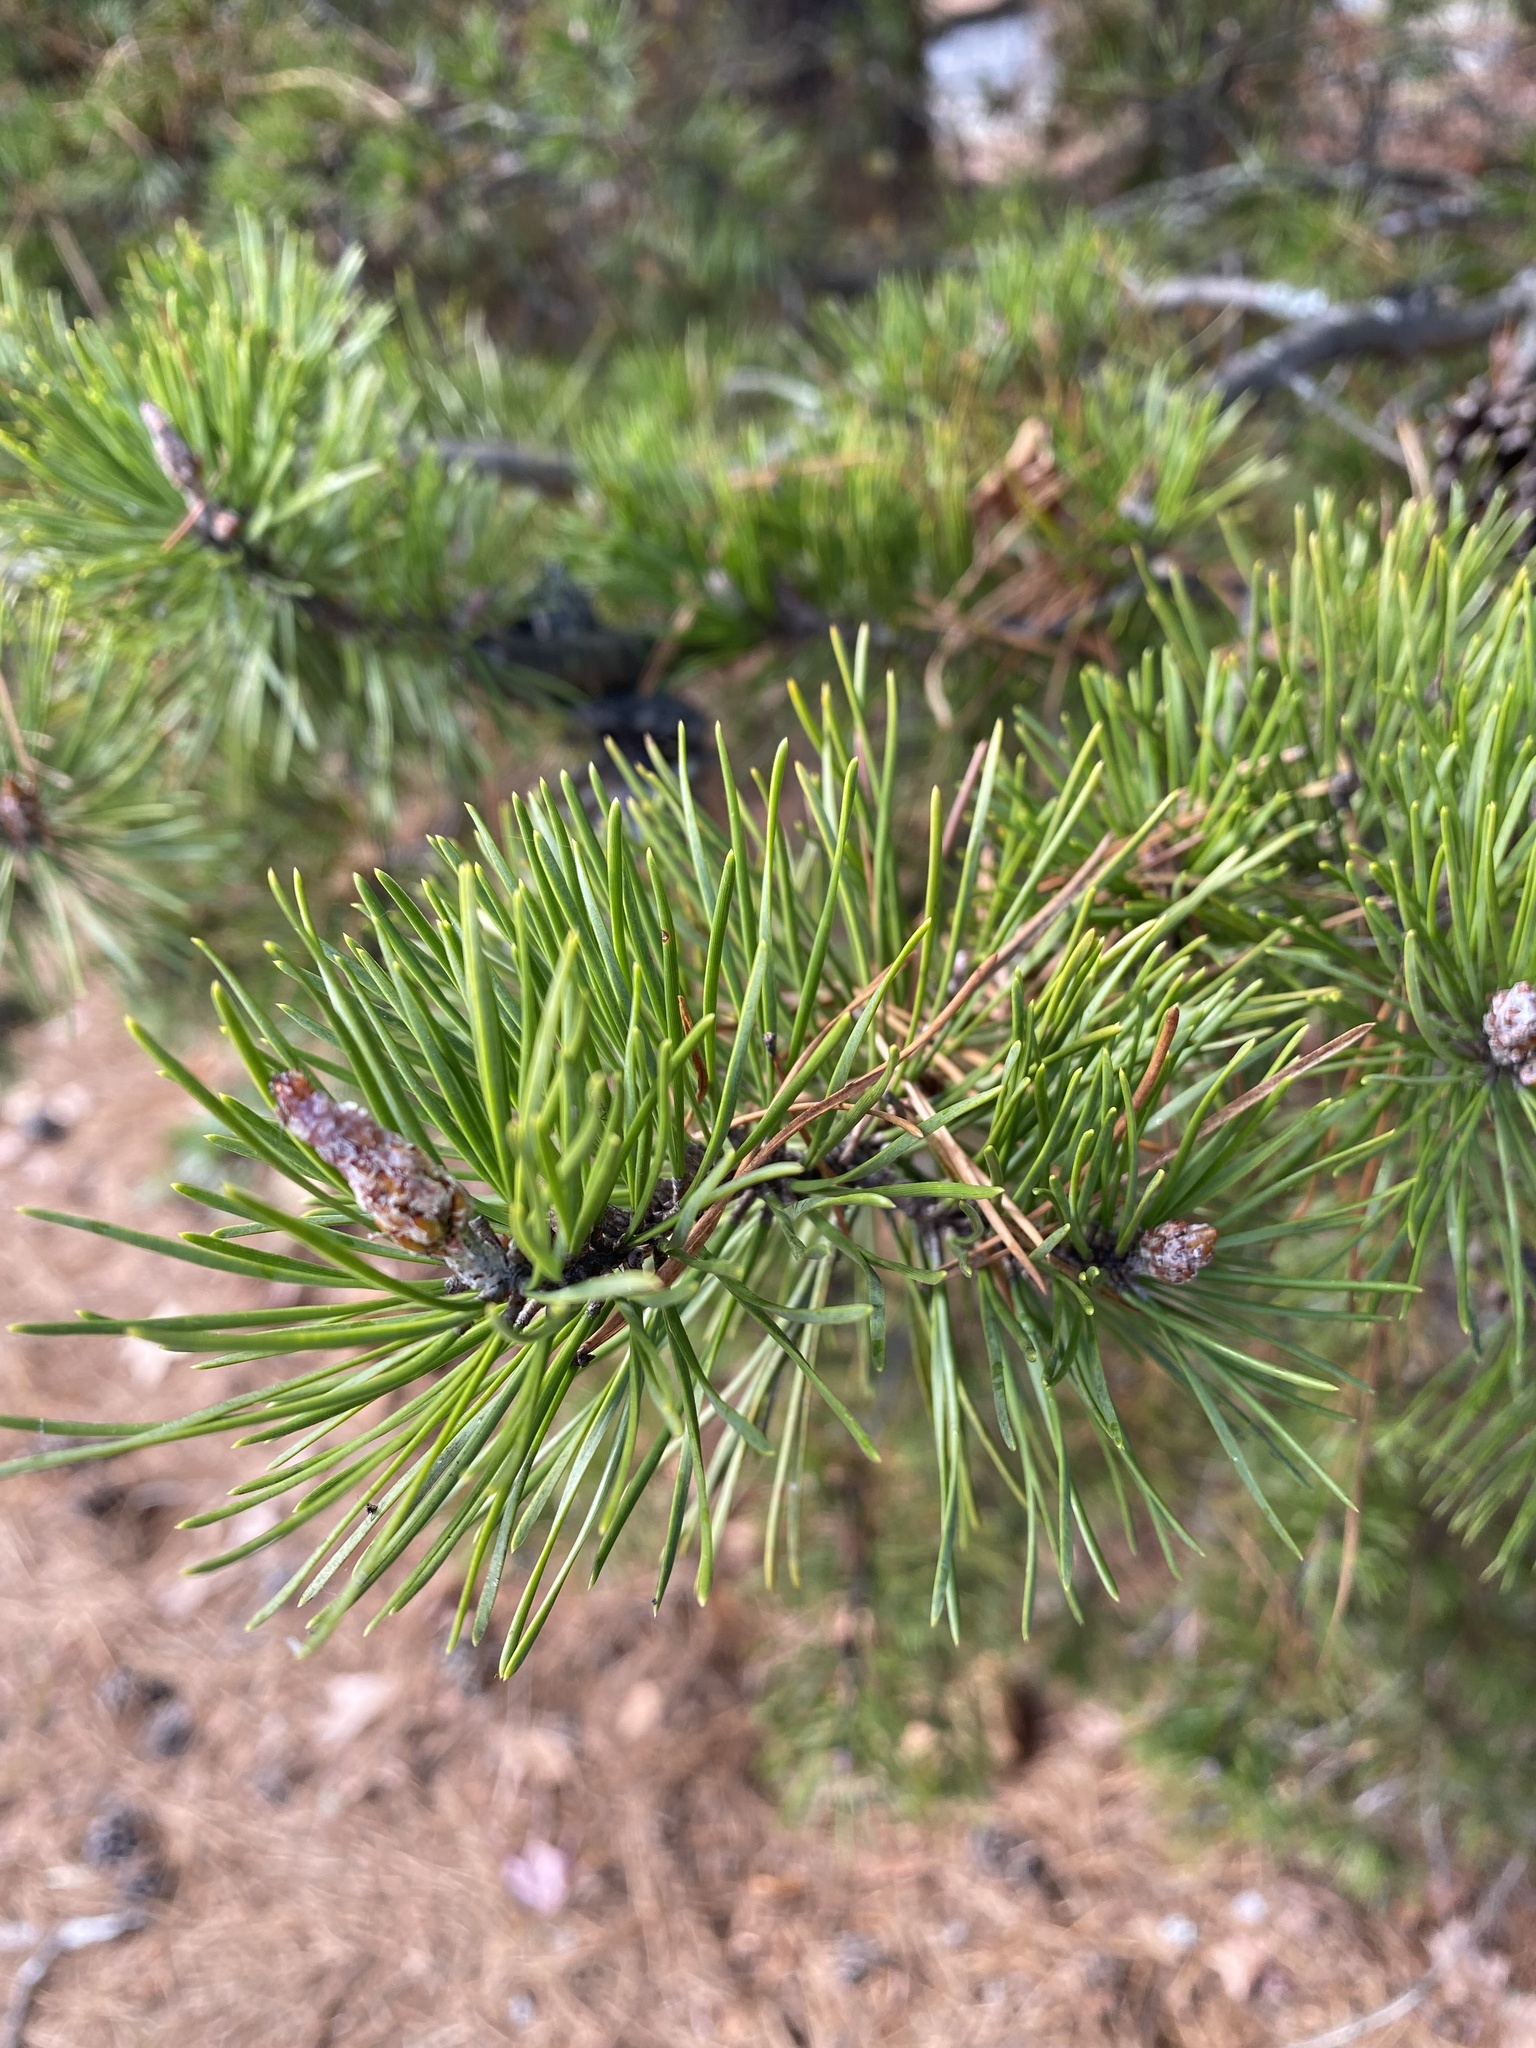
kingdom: Plantae
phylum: Tracheophyta
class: Pinopsida
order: Pinales
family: Pinaceae
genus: Pinus
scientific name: Pinus virginiana
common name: Scrub pine
